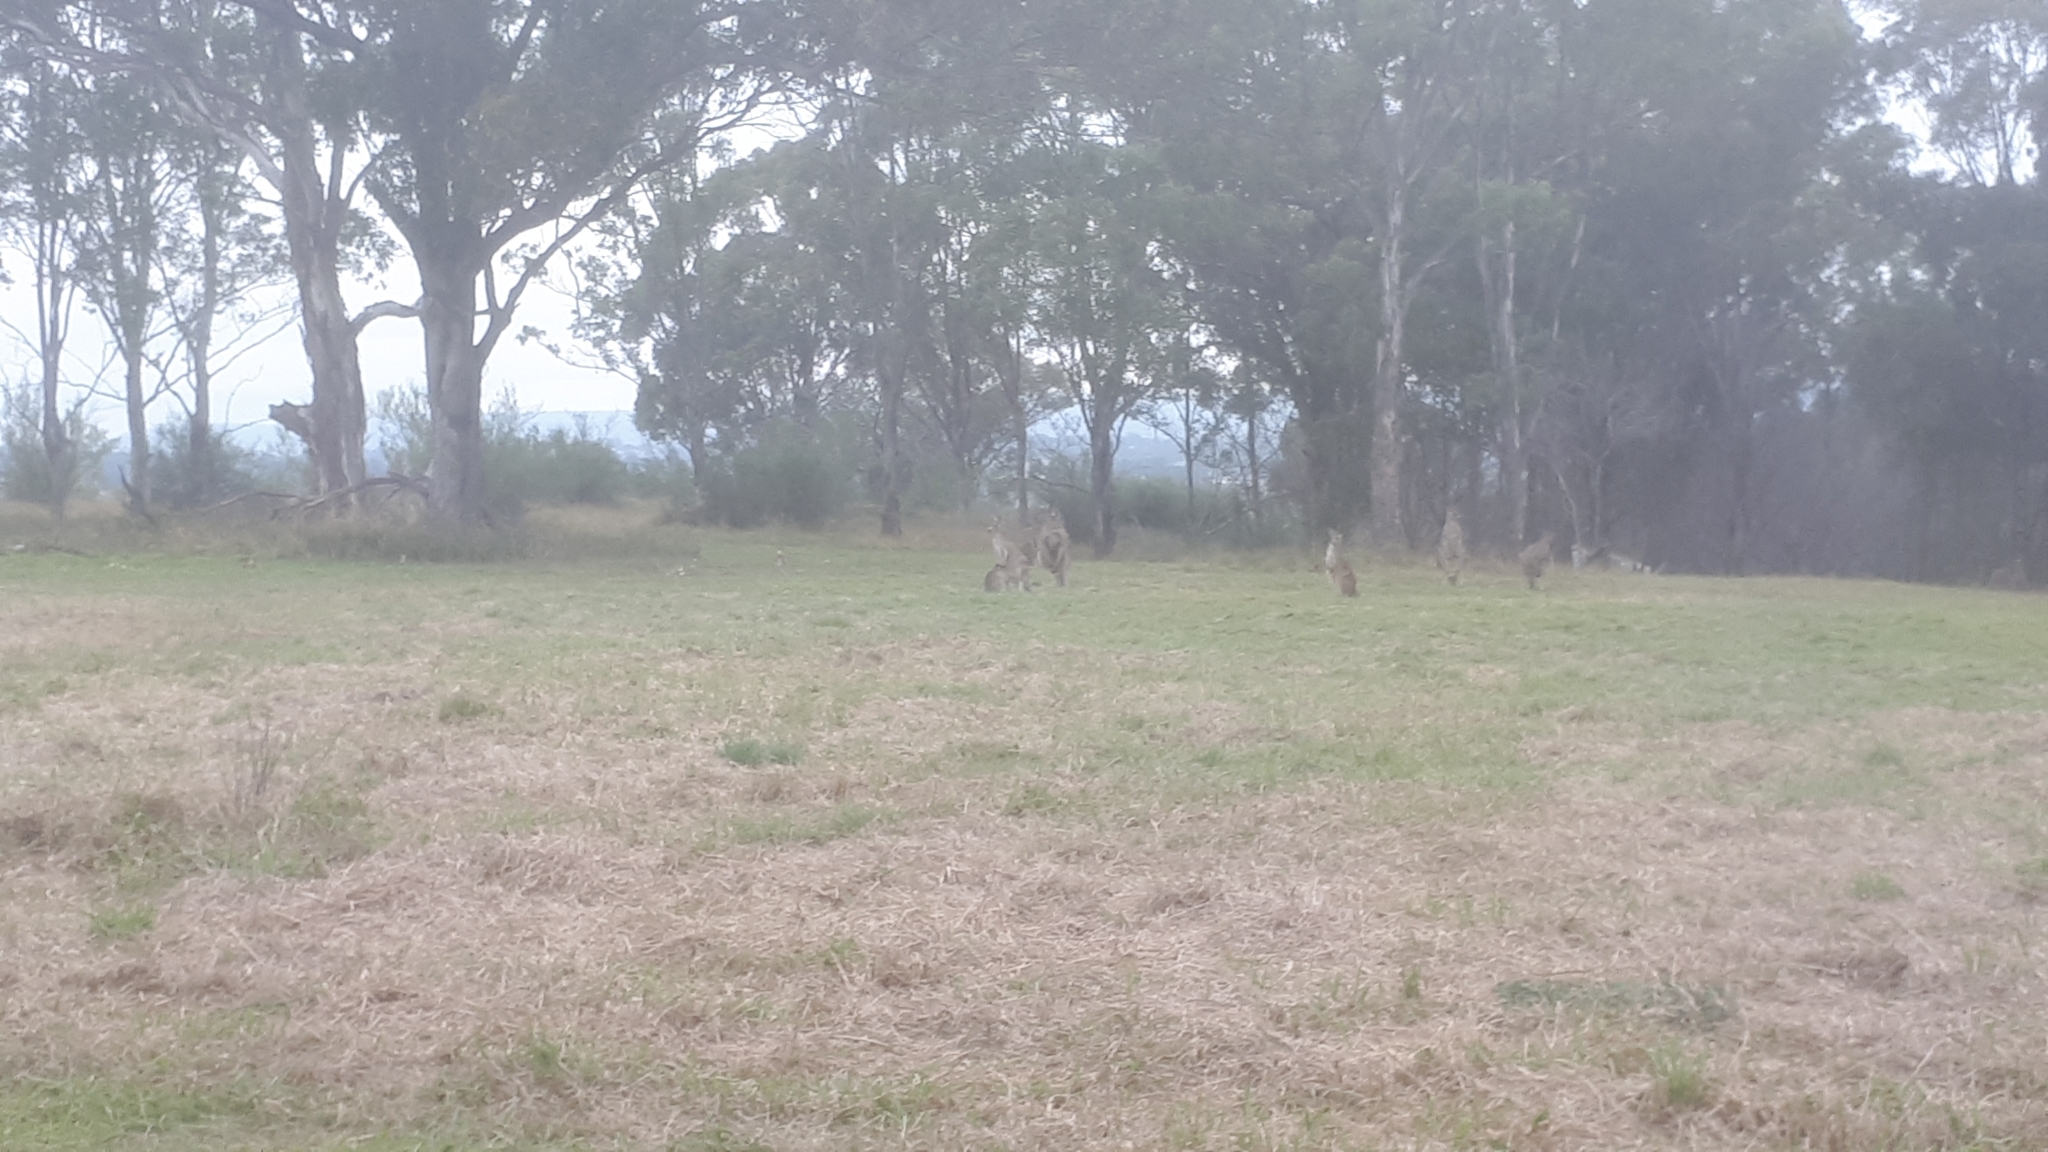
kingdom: Animalia
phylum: Chordata
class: Mammalia
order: Diprotodontia
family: Macropodidae
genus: Macropus
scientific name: Macropus giganteus
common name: Eastern grey kangaroo
